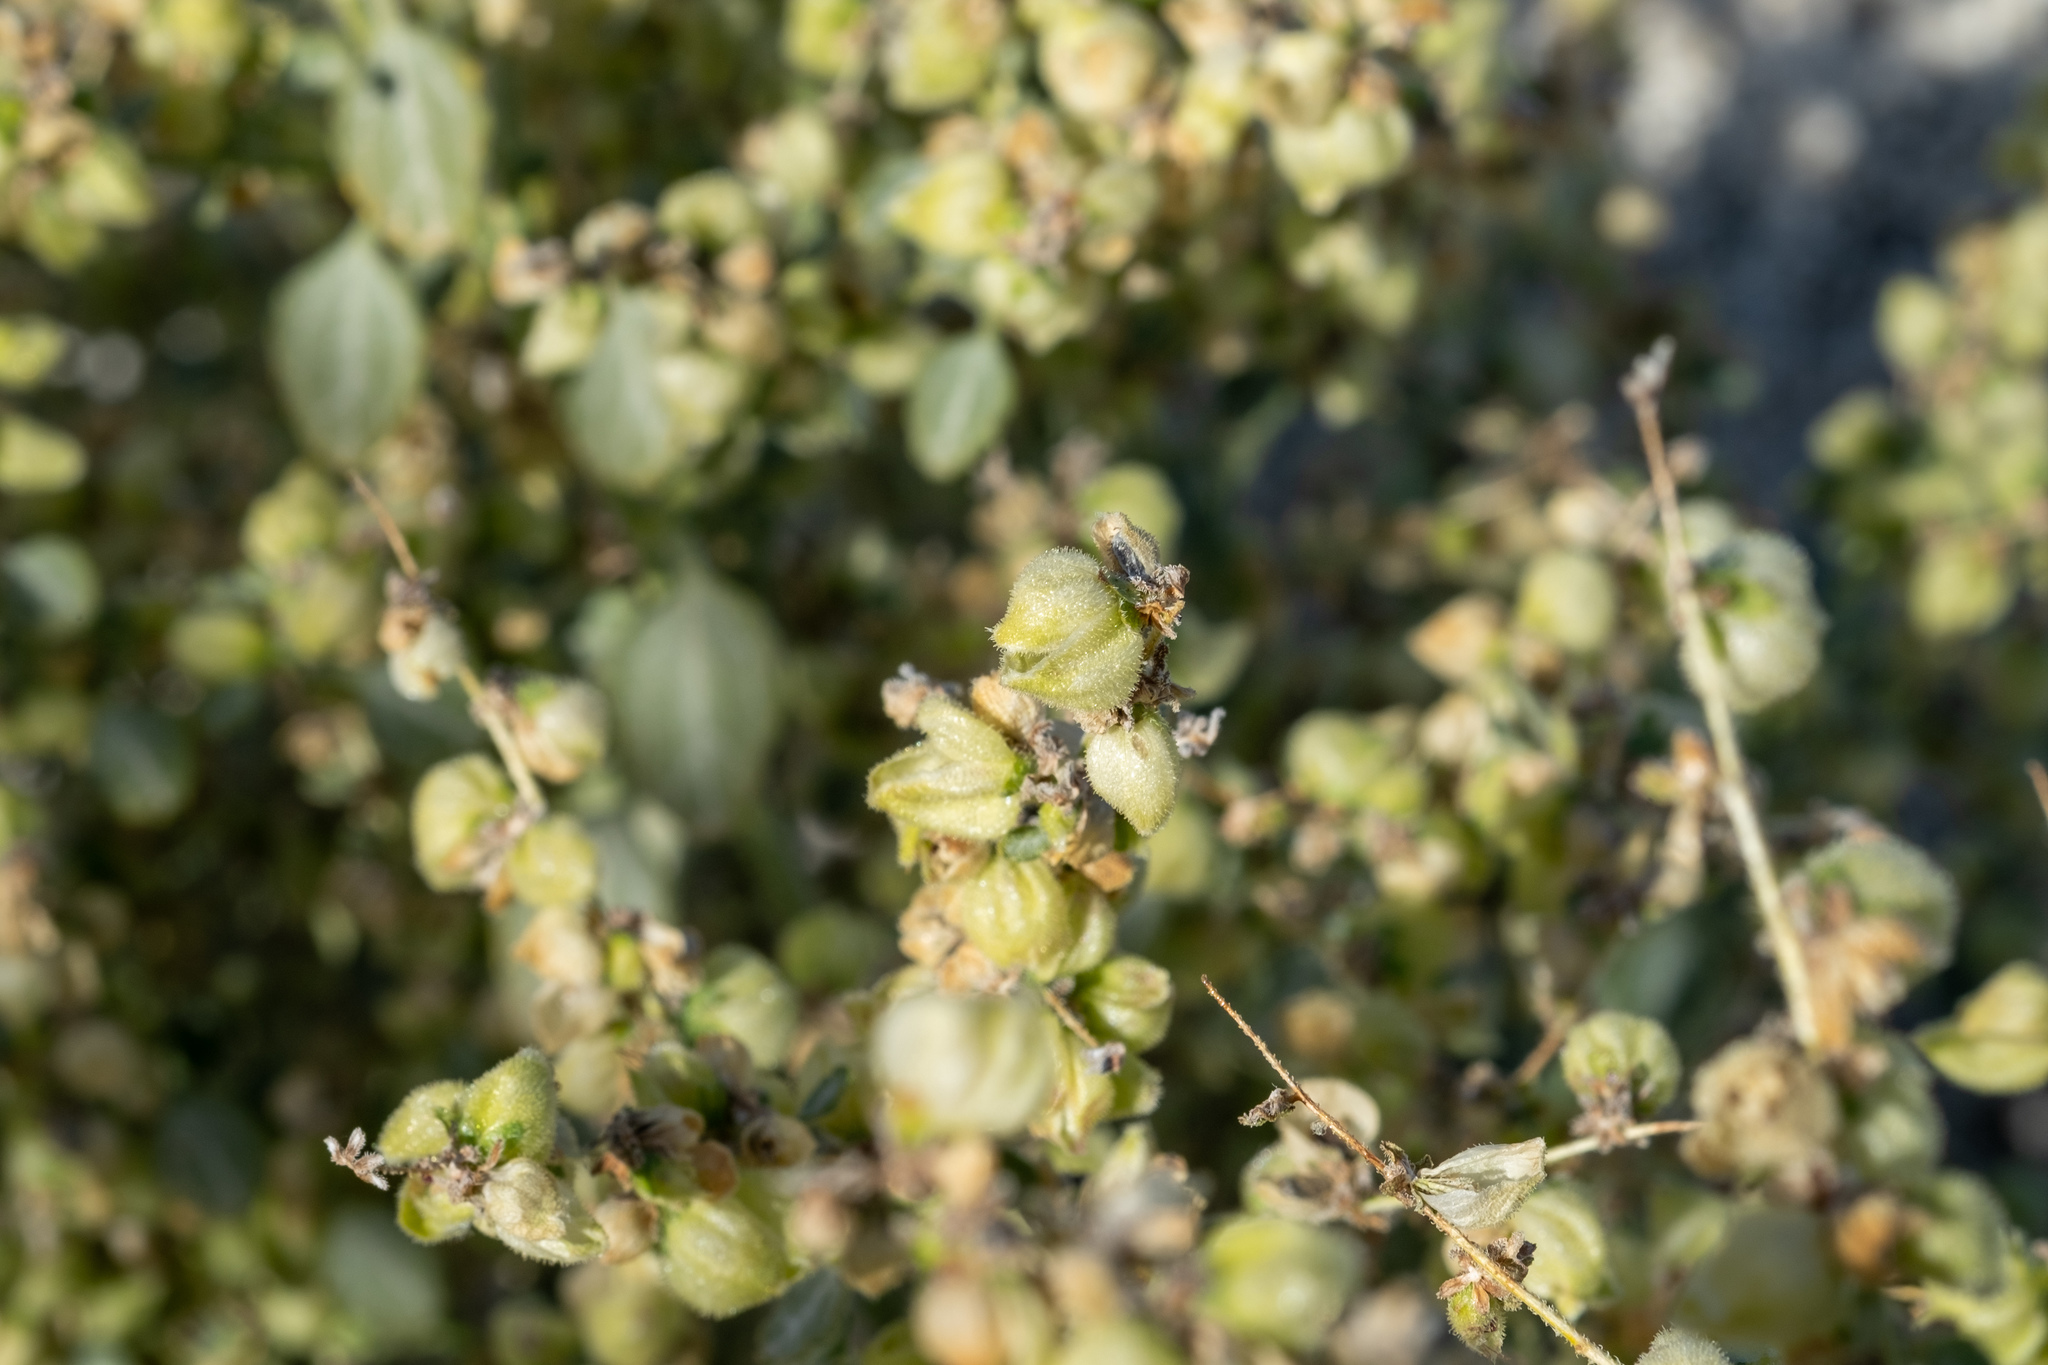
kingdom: Plantae
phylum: Tracheophyta
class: Magnoliopsida
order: Asterales
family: Asteraceae
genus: Dicoria
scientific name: Dicoria canescens
